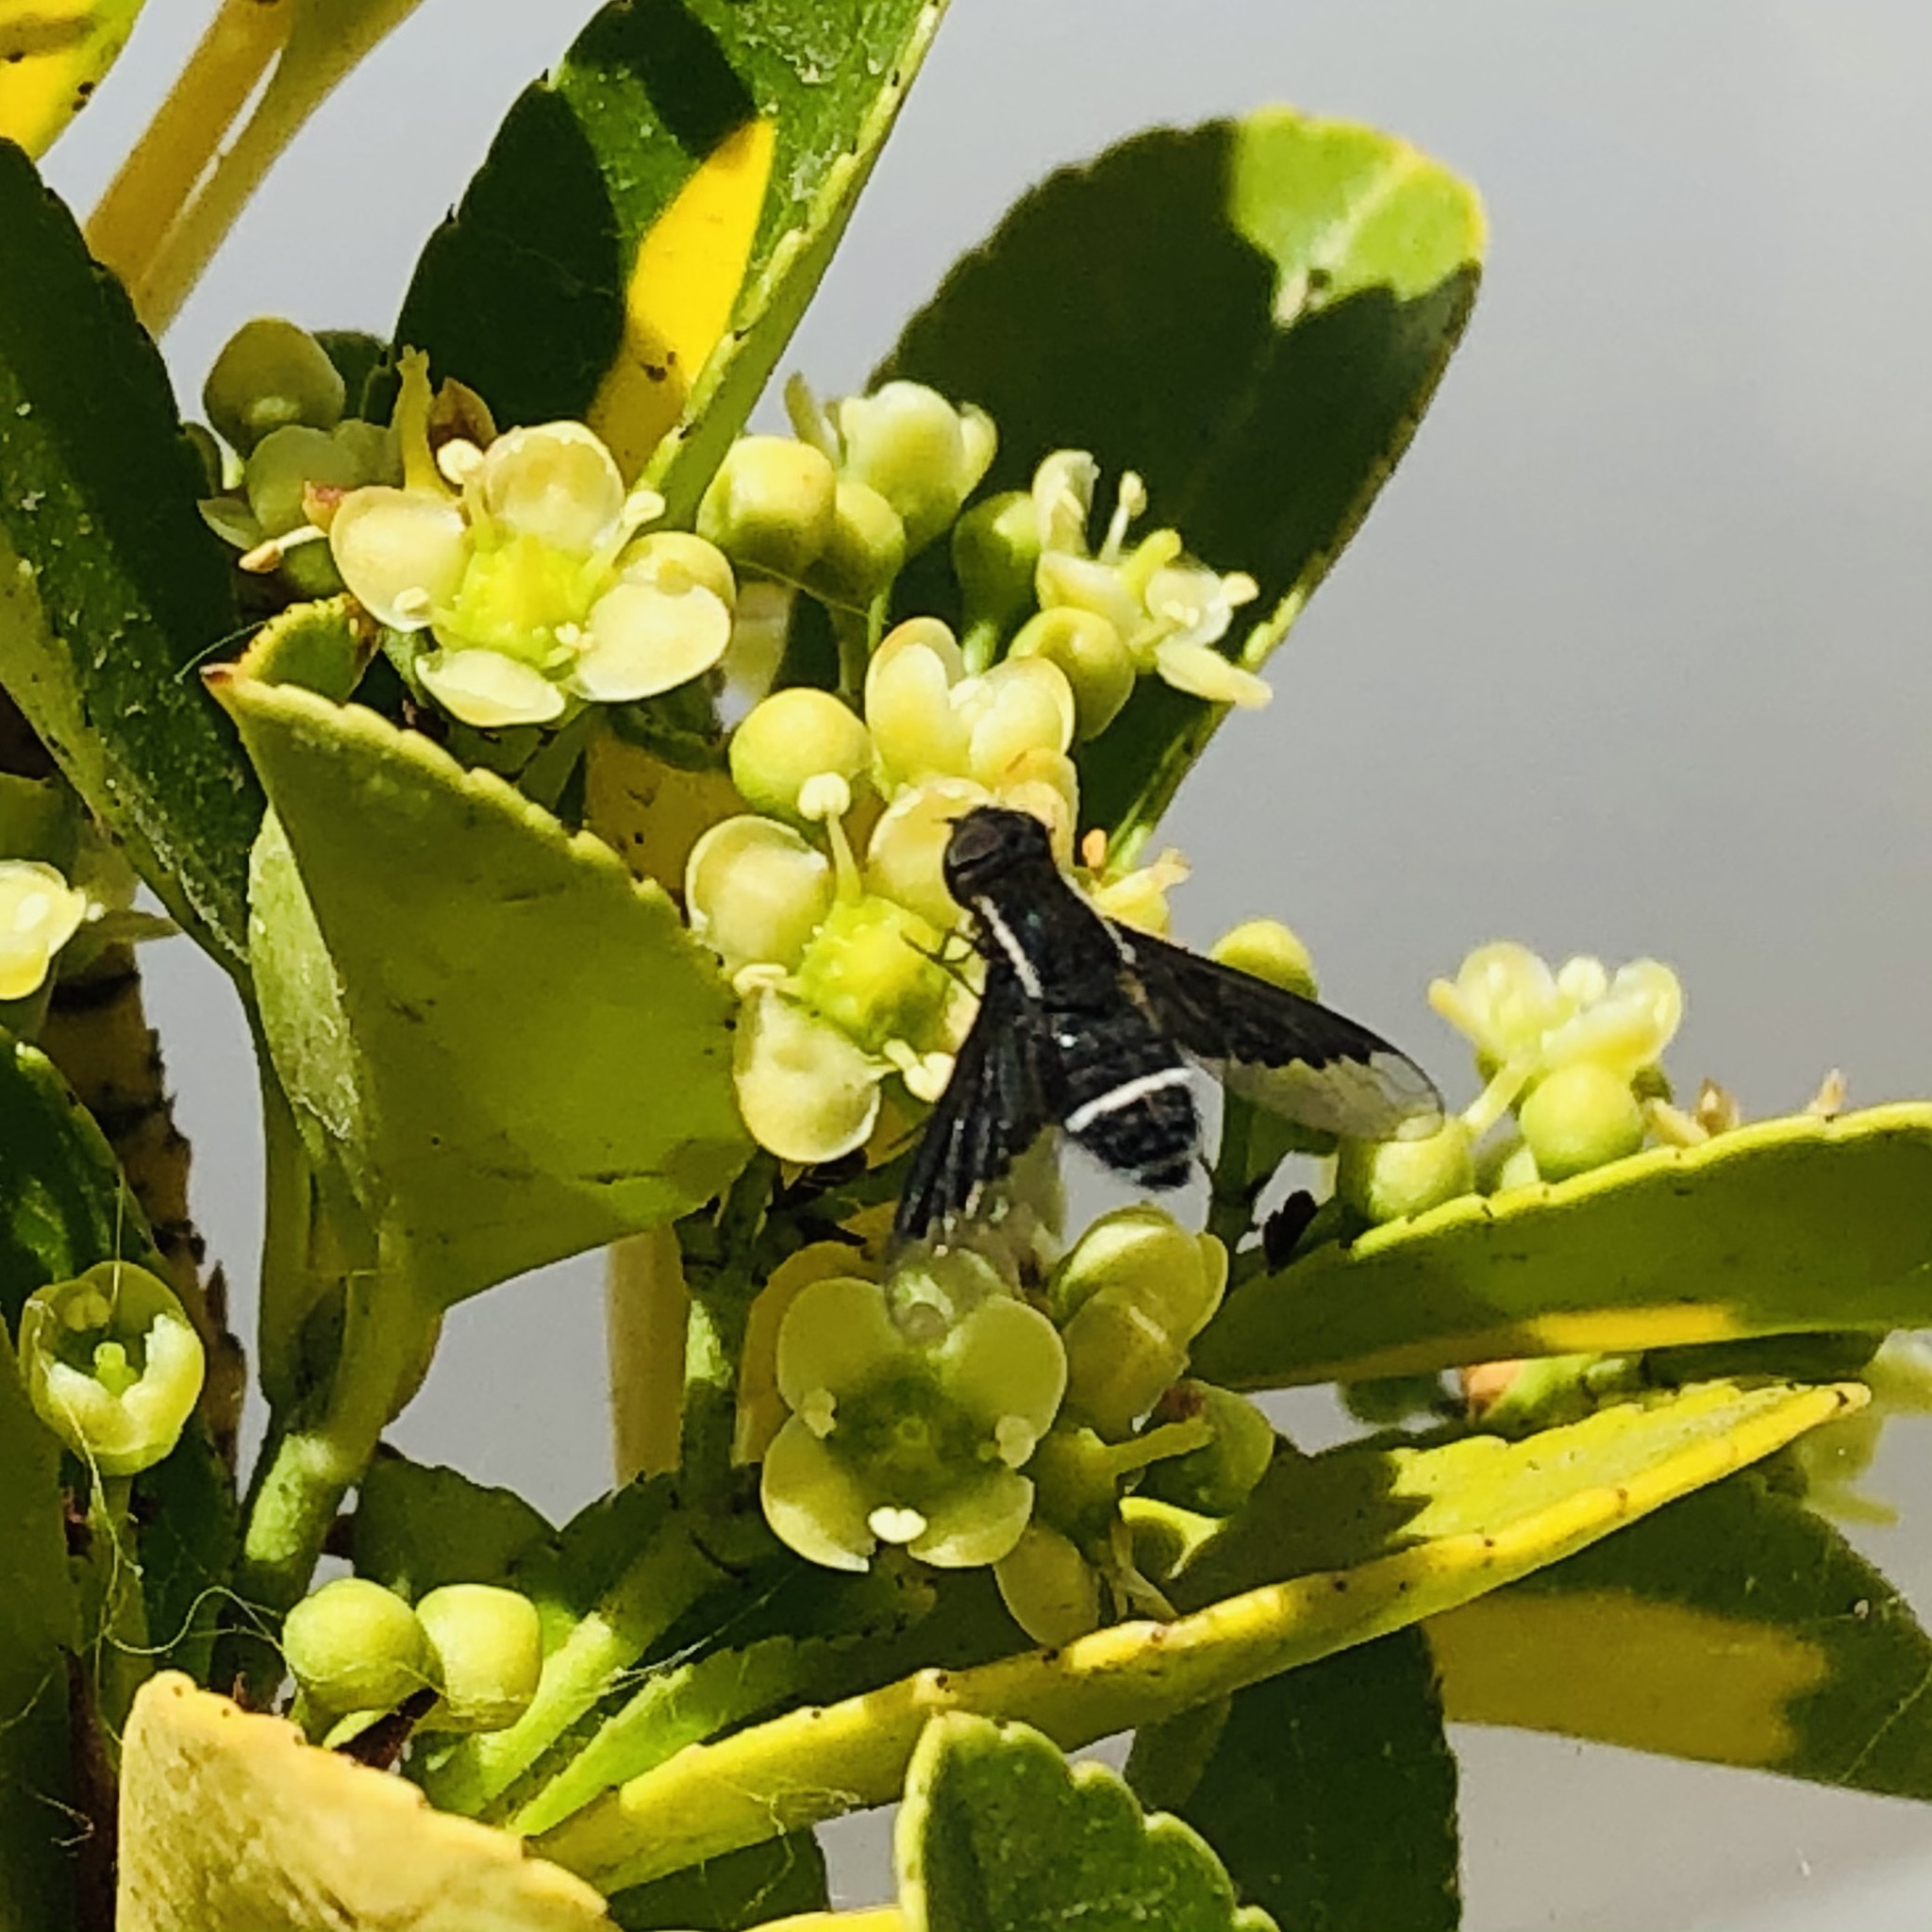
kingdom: Animalia
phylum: Arthropoda
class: Insecta
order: Diptera
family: Bombyliidae
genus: Hemipenthes
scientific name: Hemipenthes gayi
